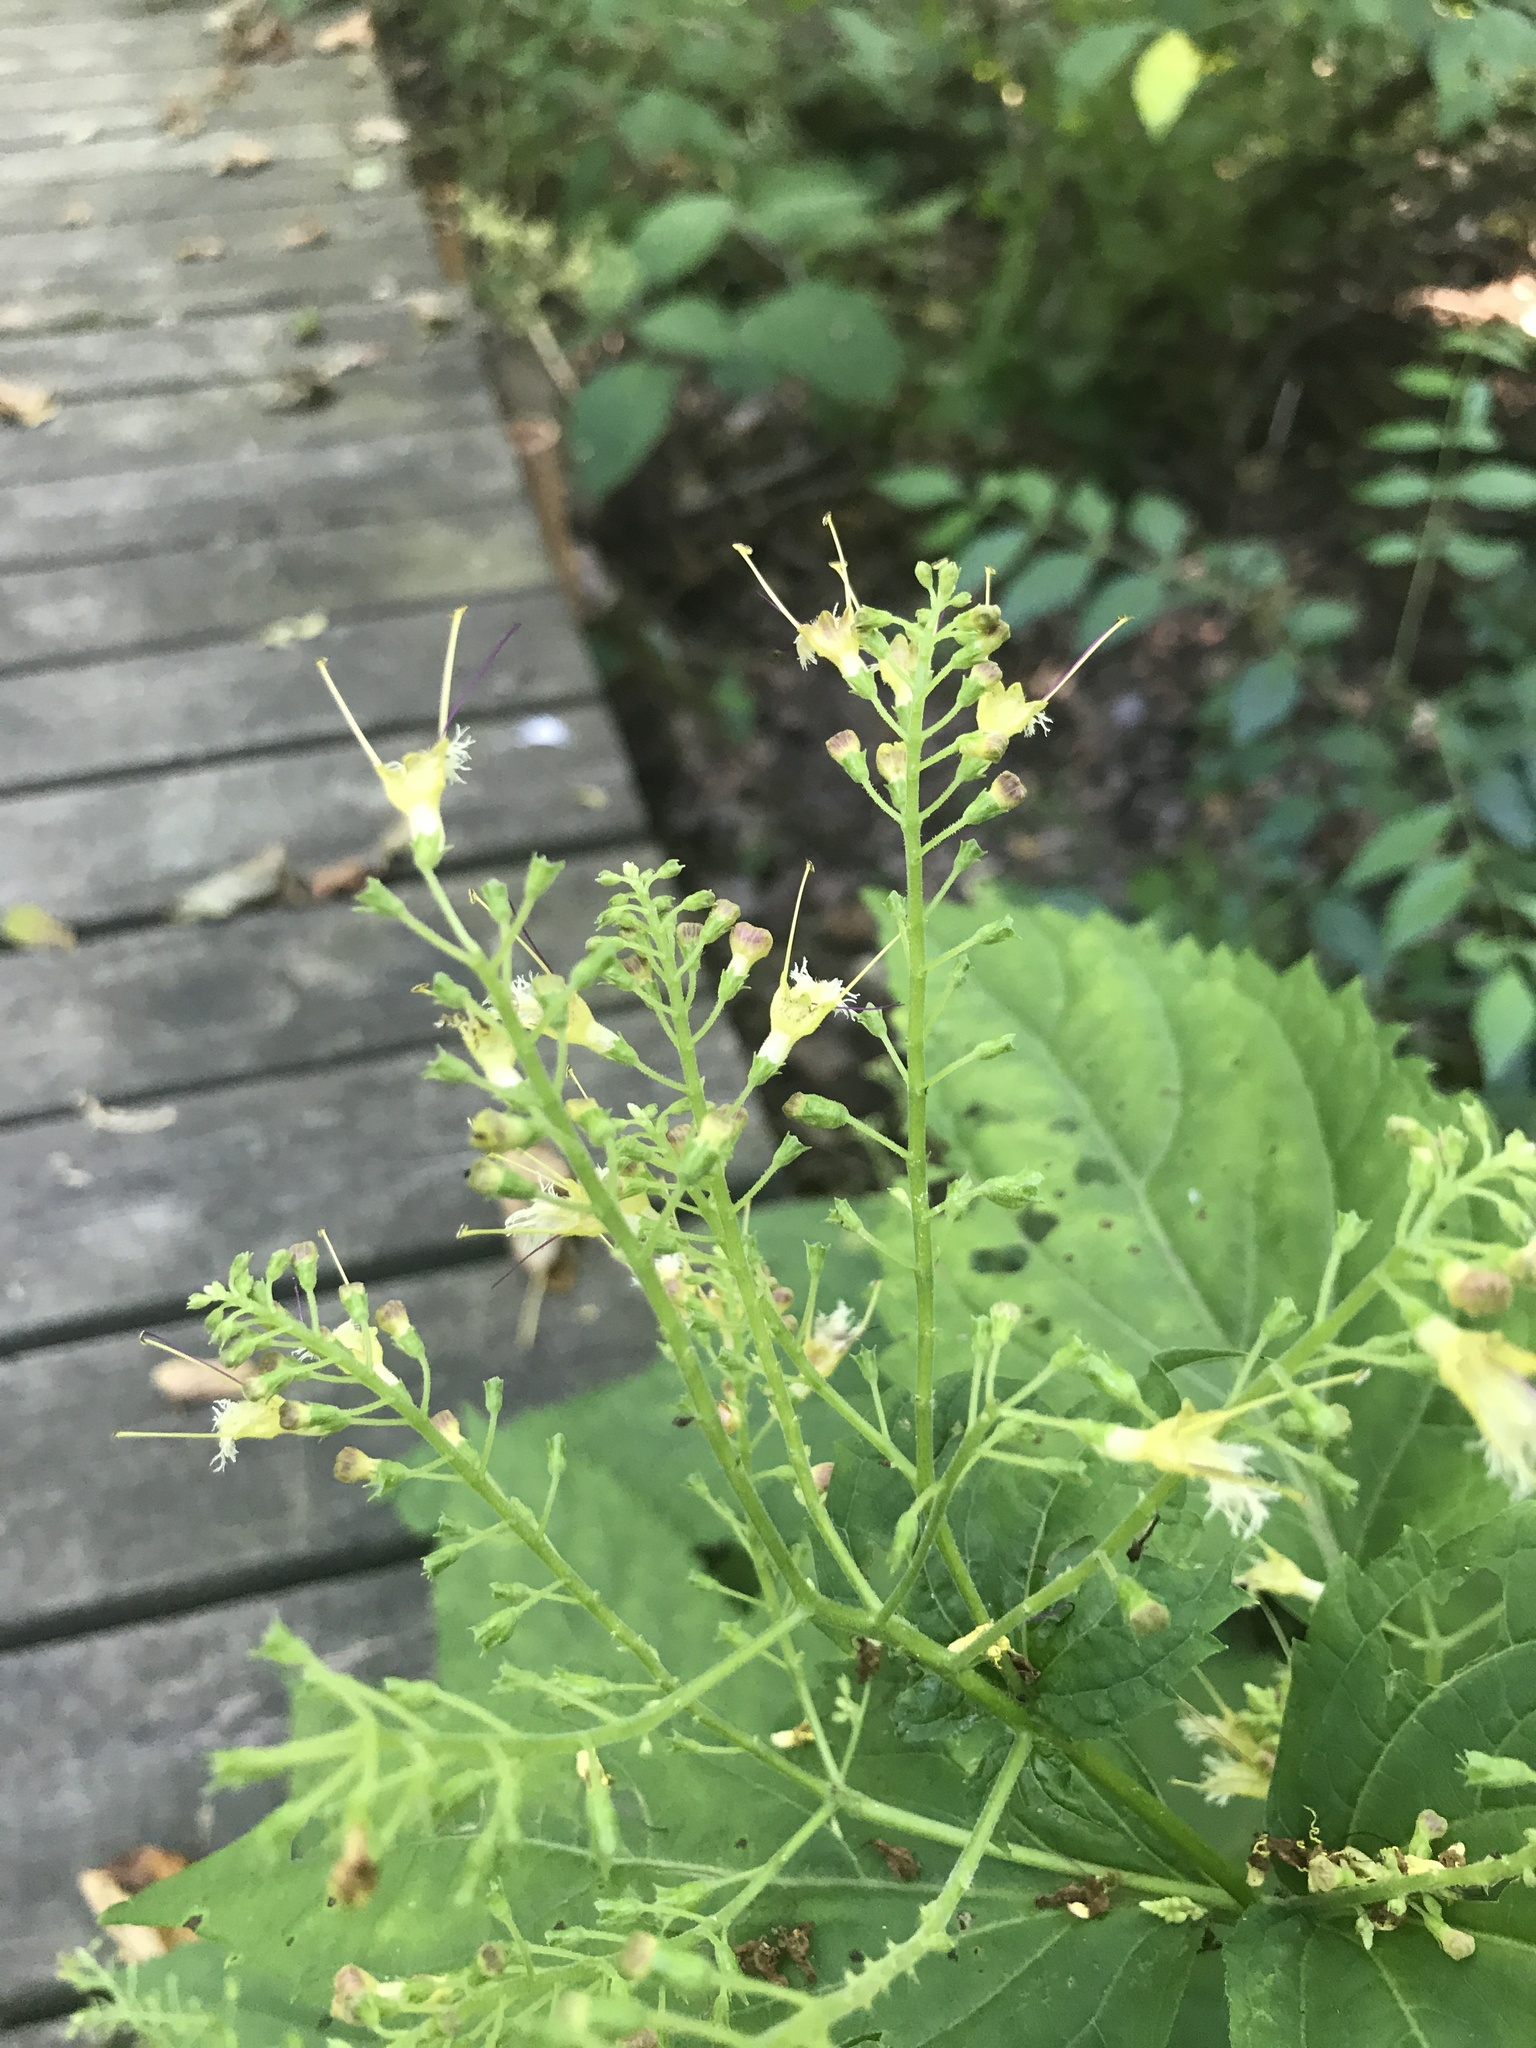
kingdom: Plantae
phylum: Tracheophyta
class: Magnoliopsida
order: Lamiales
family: Lamiaceae
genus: Collinsonia
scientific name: Collinsonia canadensis
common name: Northern horsebalm
